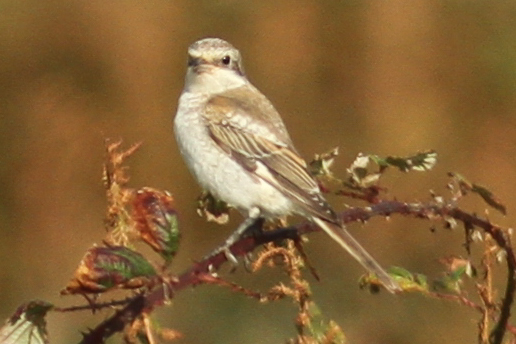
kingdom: Animalia
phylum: Chordata
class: Aves
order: Passeriformes
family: Laniidae
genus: Lanius
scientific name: Lanius senator
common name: Woodchat shrike
